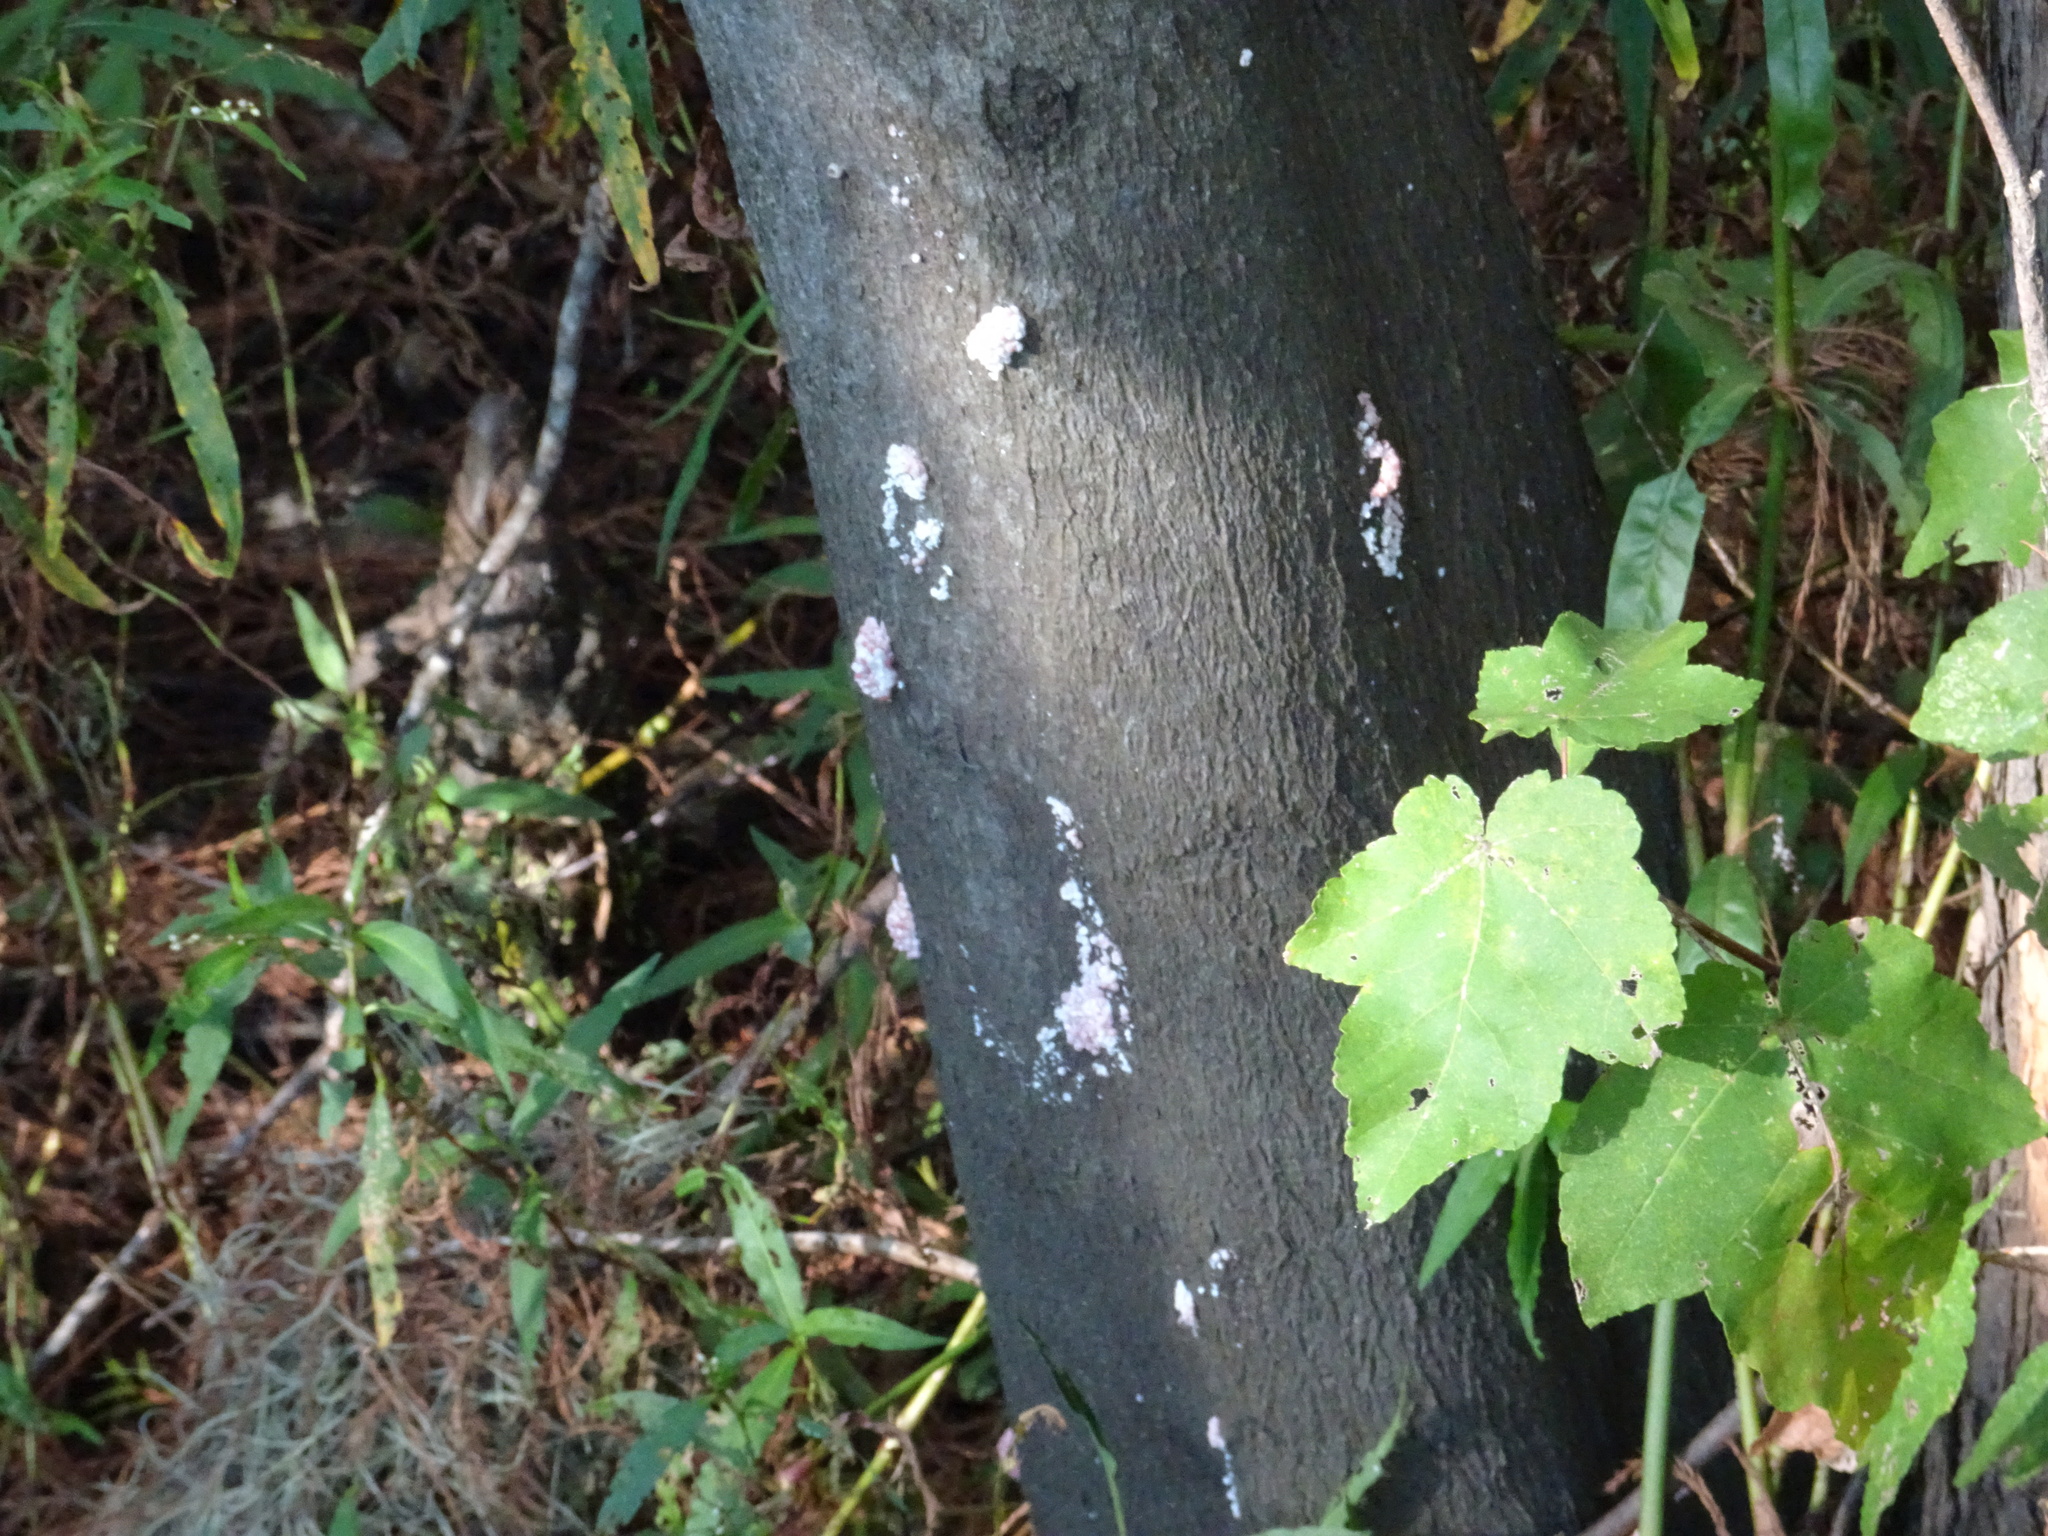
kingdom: Animalia
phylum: Mollusca
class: Gastropoda
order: Architaenioglossa
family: Ampullariidae
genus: Pomacea
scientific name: Pomacea maculata
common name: Giant applesnail
